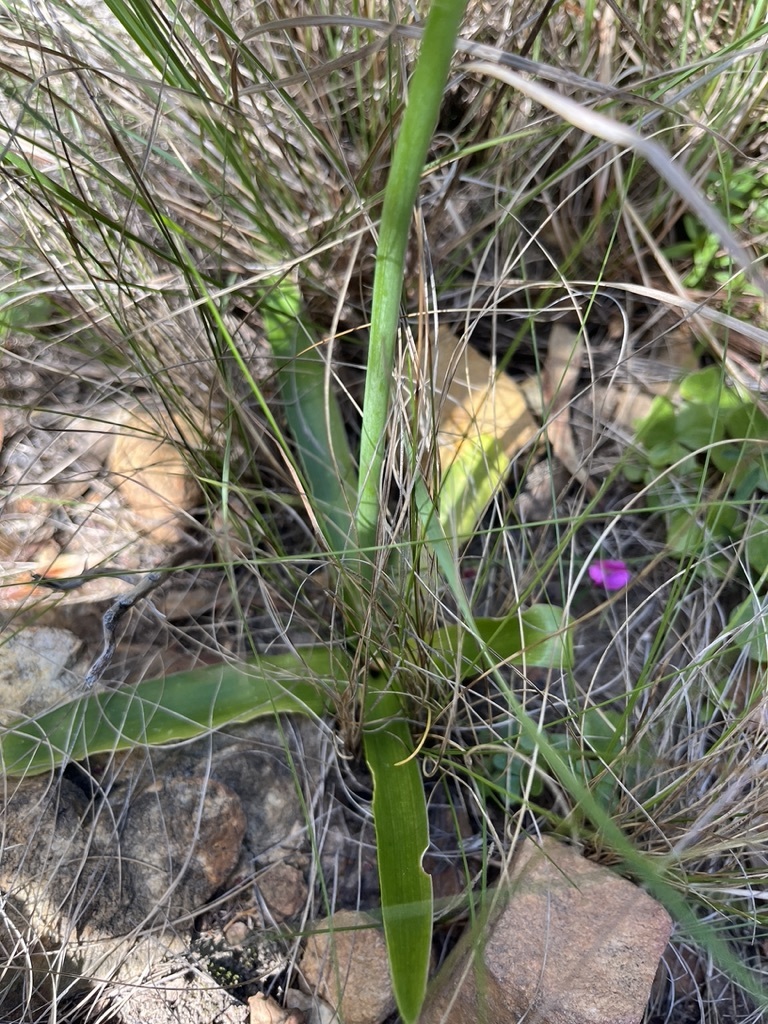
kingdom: Plantae
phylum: Tracheophyta
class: Liliopsida
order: Asparagales
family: Asparagaceae
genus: Ornithogalum
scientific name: Ornithogalum thyrsoides
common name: Chincherinchee
